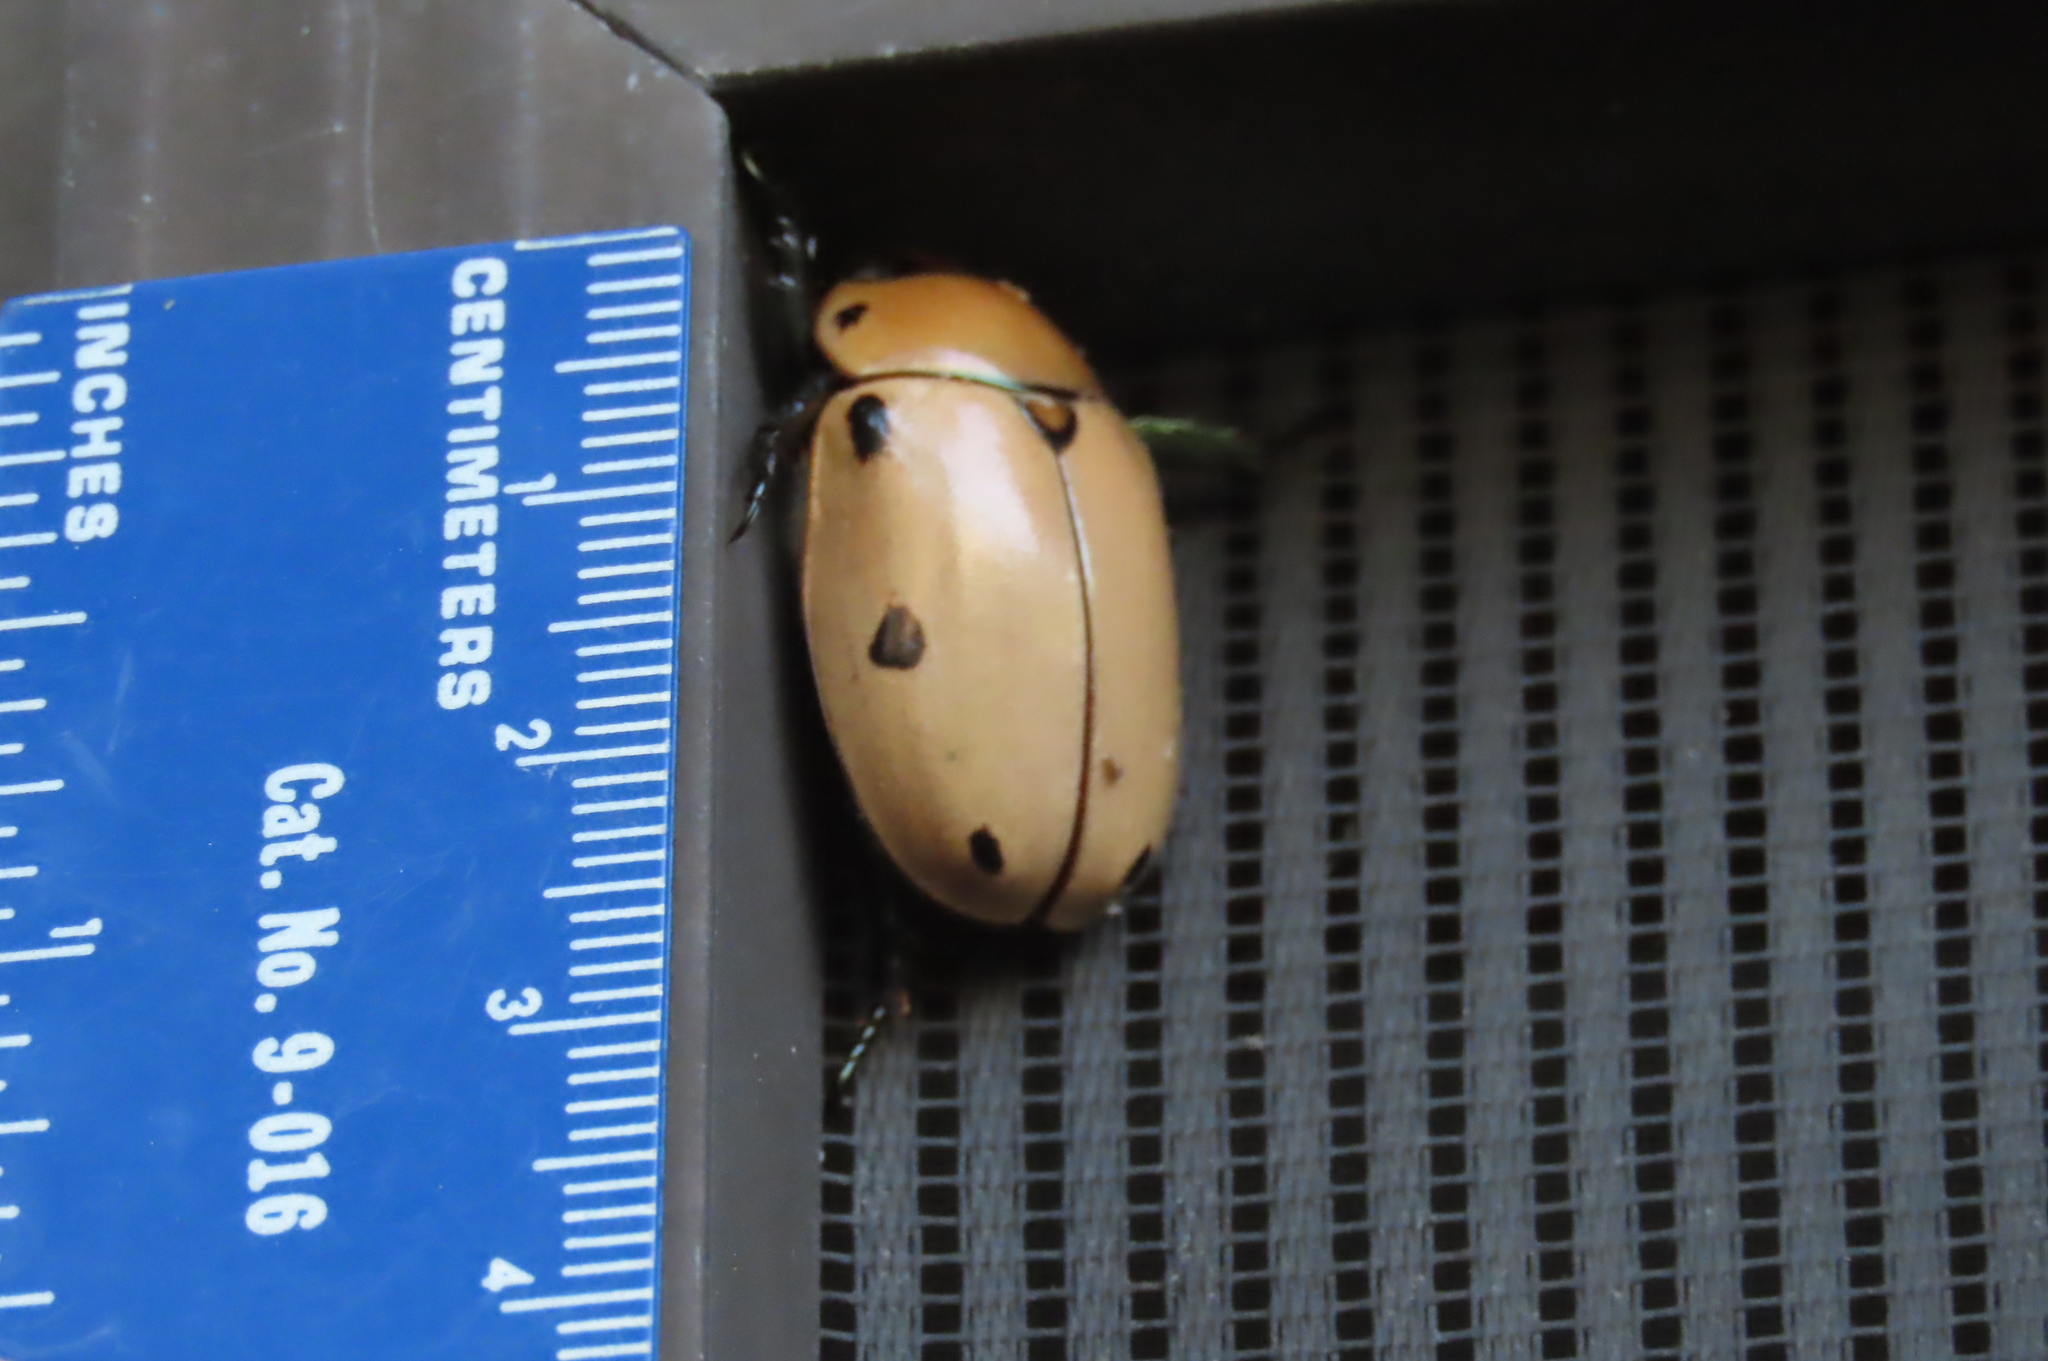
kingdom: Animalia
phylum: Arthropoda
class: Insecta
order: Coleoptera
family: Scarabaeidae
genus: Pelidnota
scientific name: Pelidnota punctata
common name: Grapevine beetle
